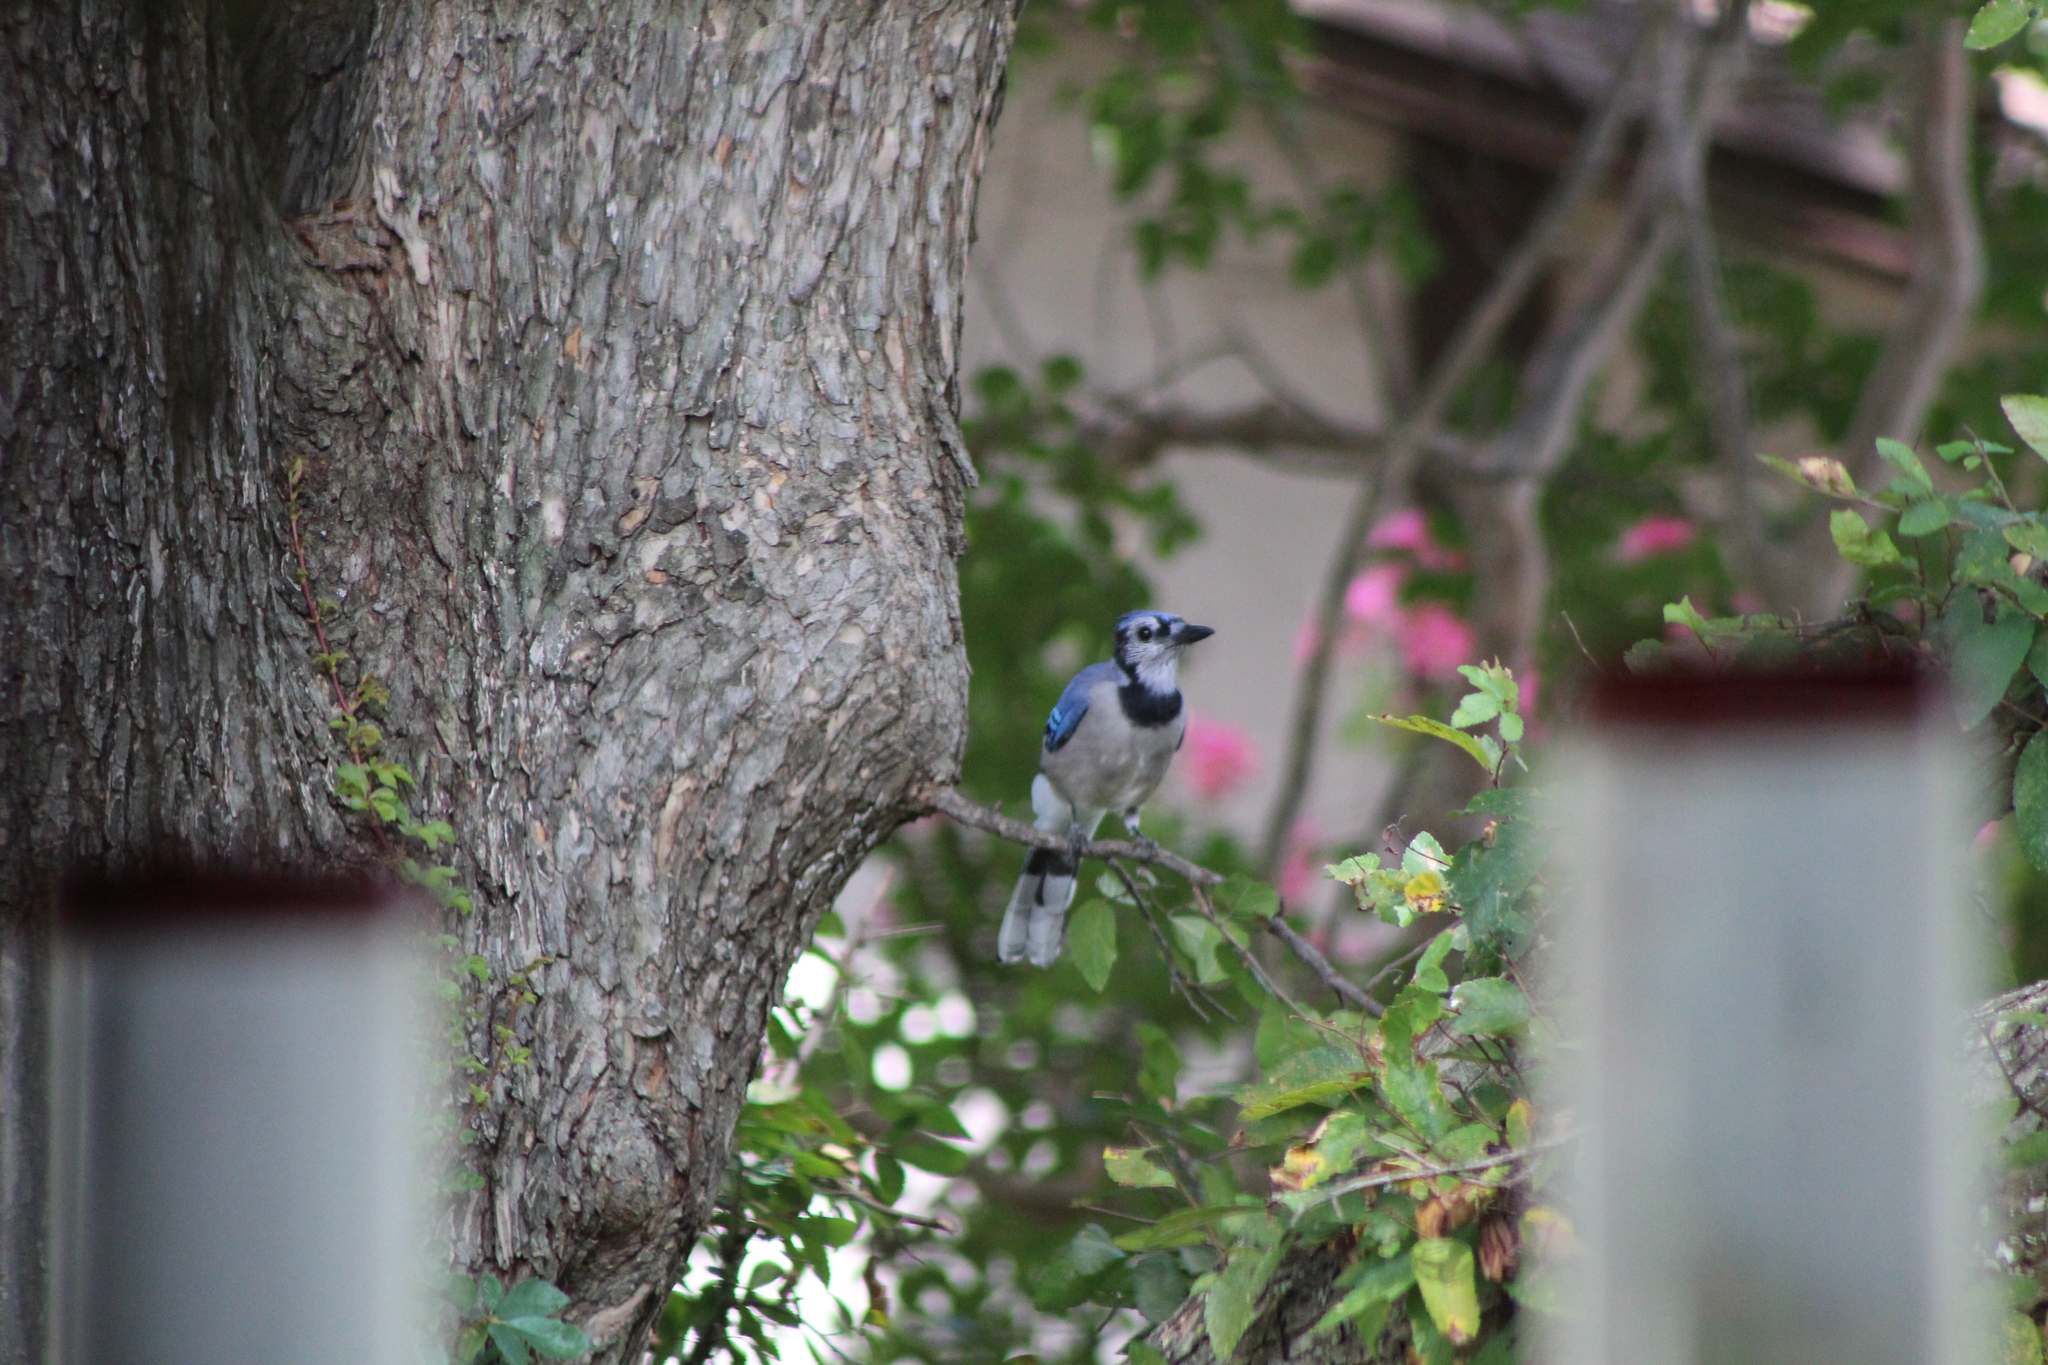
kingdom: Animalia
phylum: Chordata
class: Aves
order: Passeriformes
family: Corvidae
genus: Cyanocitta
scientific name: Cyanocitta cristata
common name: Blue jay
